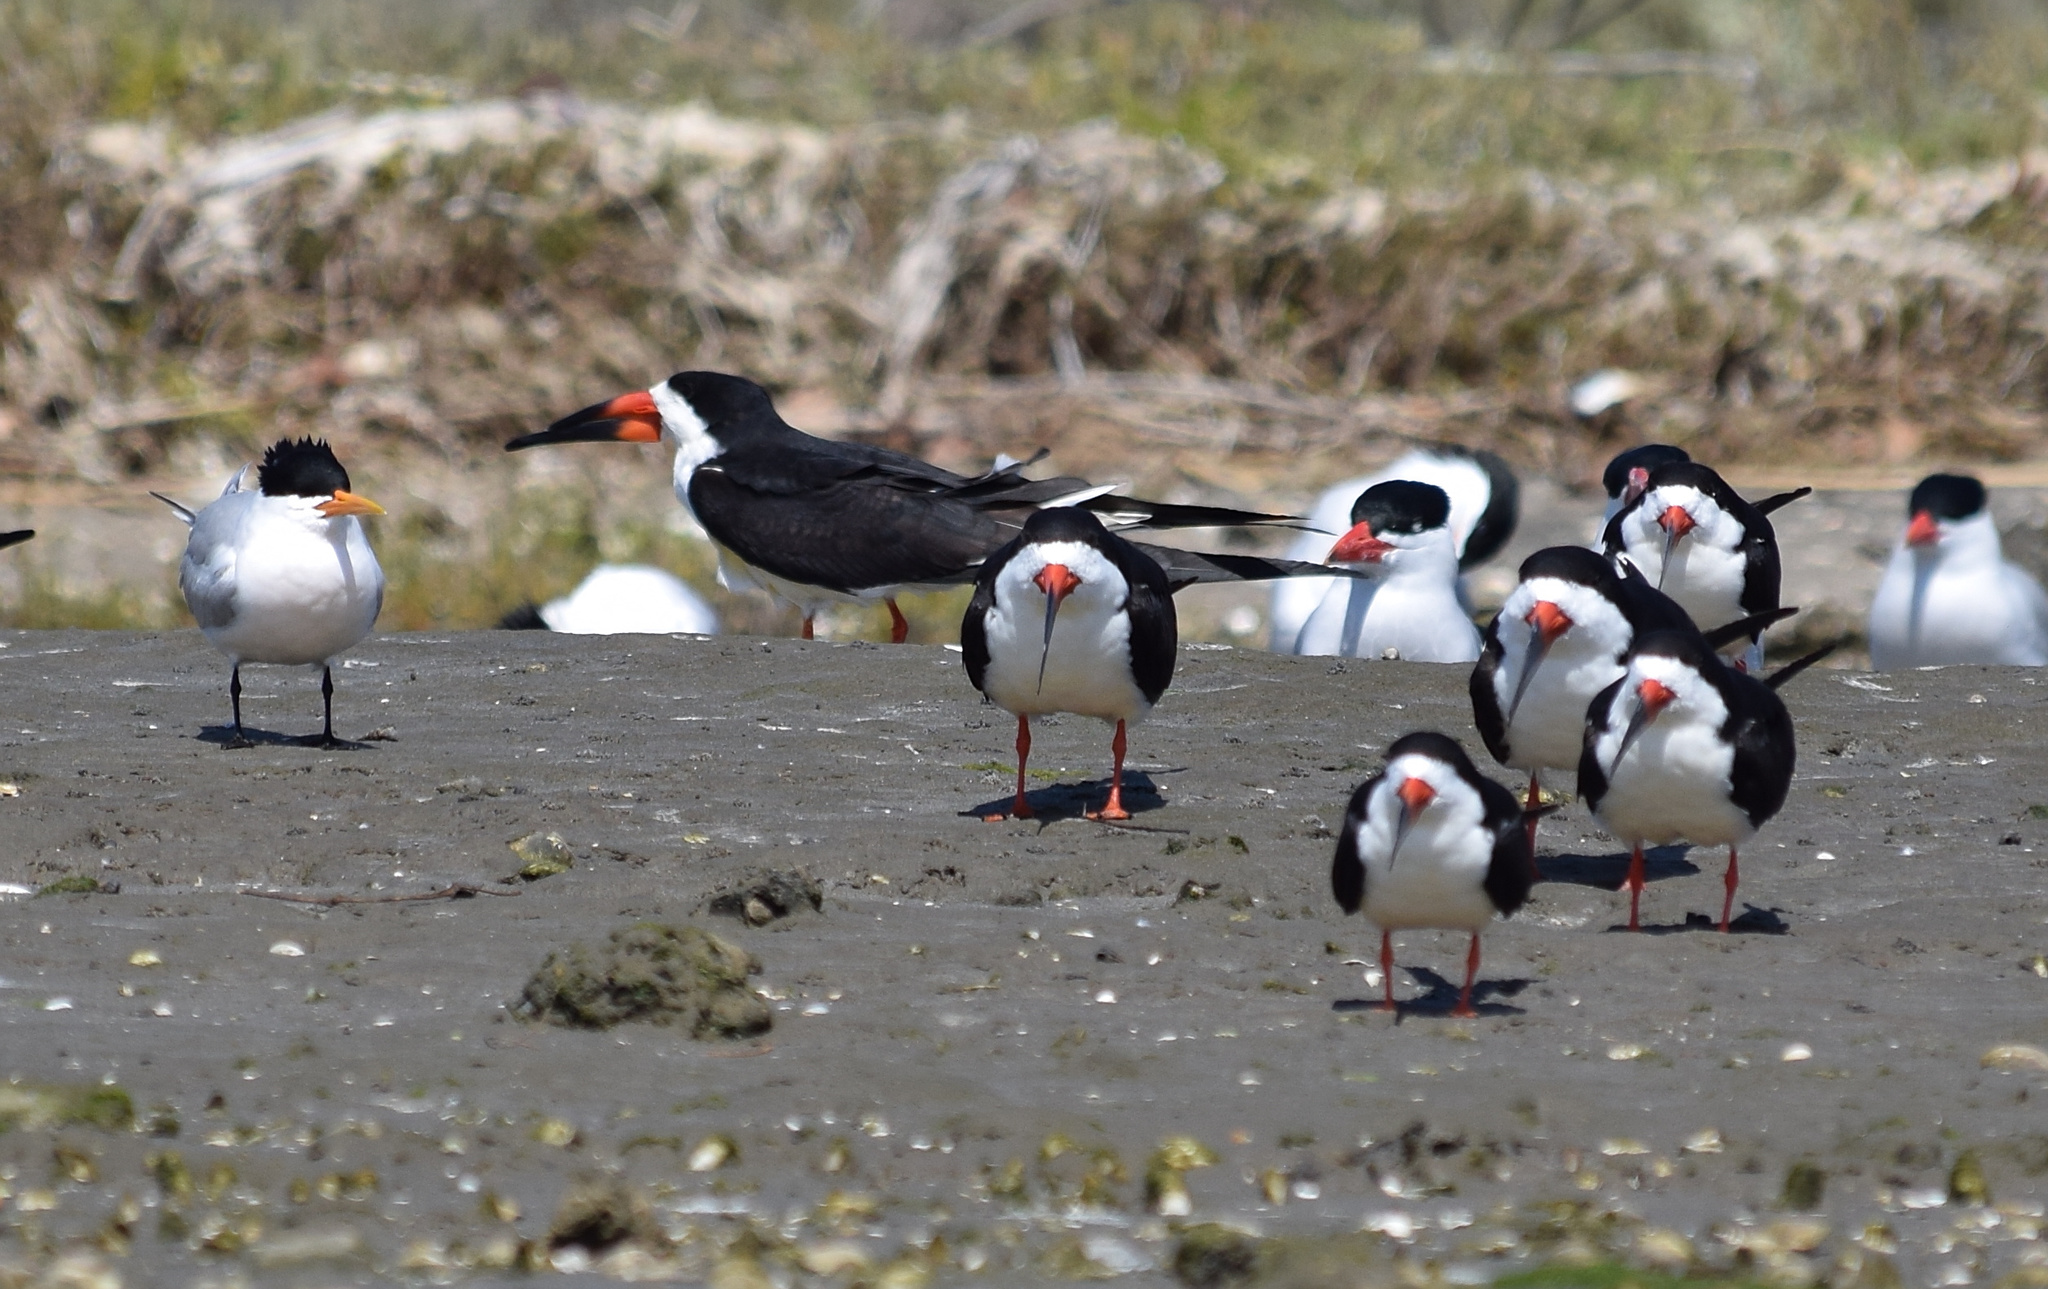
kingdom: Animalia
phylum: Chordata
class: Aves
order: Charadriiformes
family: Laridae
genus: Rynchops
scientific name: Rynchops niger
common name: Black skimmer
